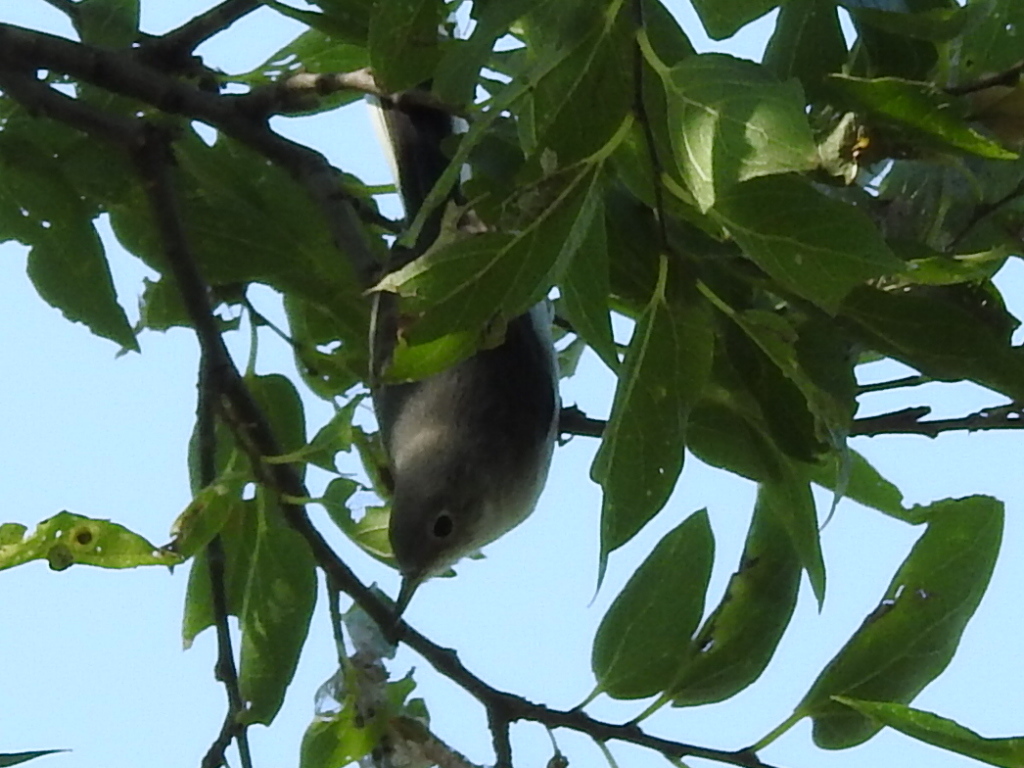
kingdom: Animalia
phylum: Chordata
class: Aves
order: Passeriformes
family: Polioptilidae
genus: Polioptila
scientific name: Polioptila caerulea
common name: Blue-gray gnatcatcher
